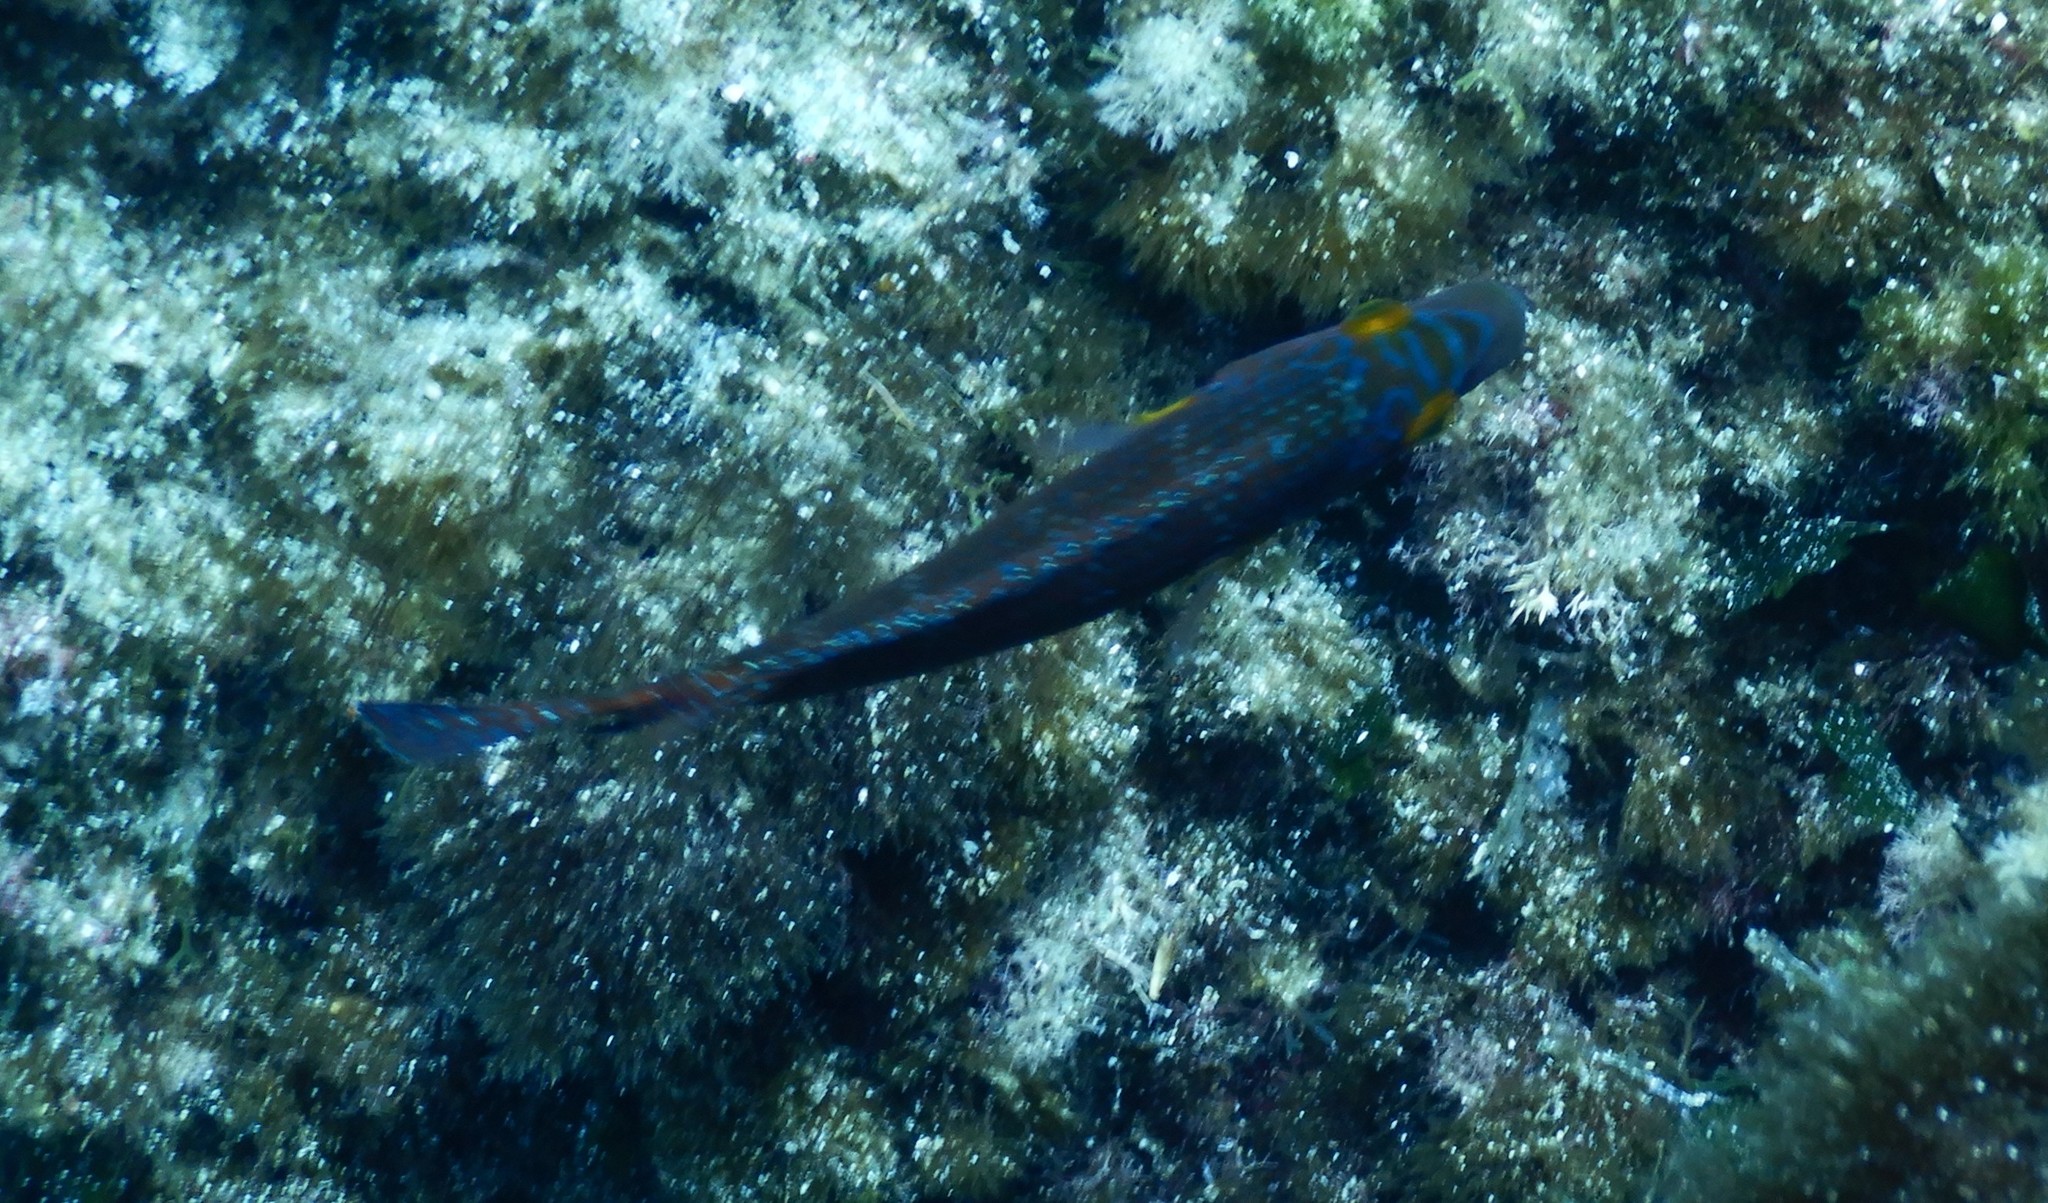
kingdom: Animalia
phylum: Chordata
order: Perciformes
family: Labridae
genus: Symphodus
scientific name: Symphodus mediterraneus
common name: Axillary wrasse
